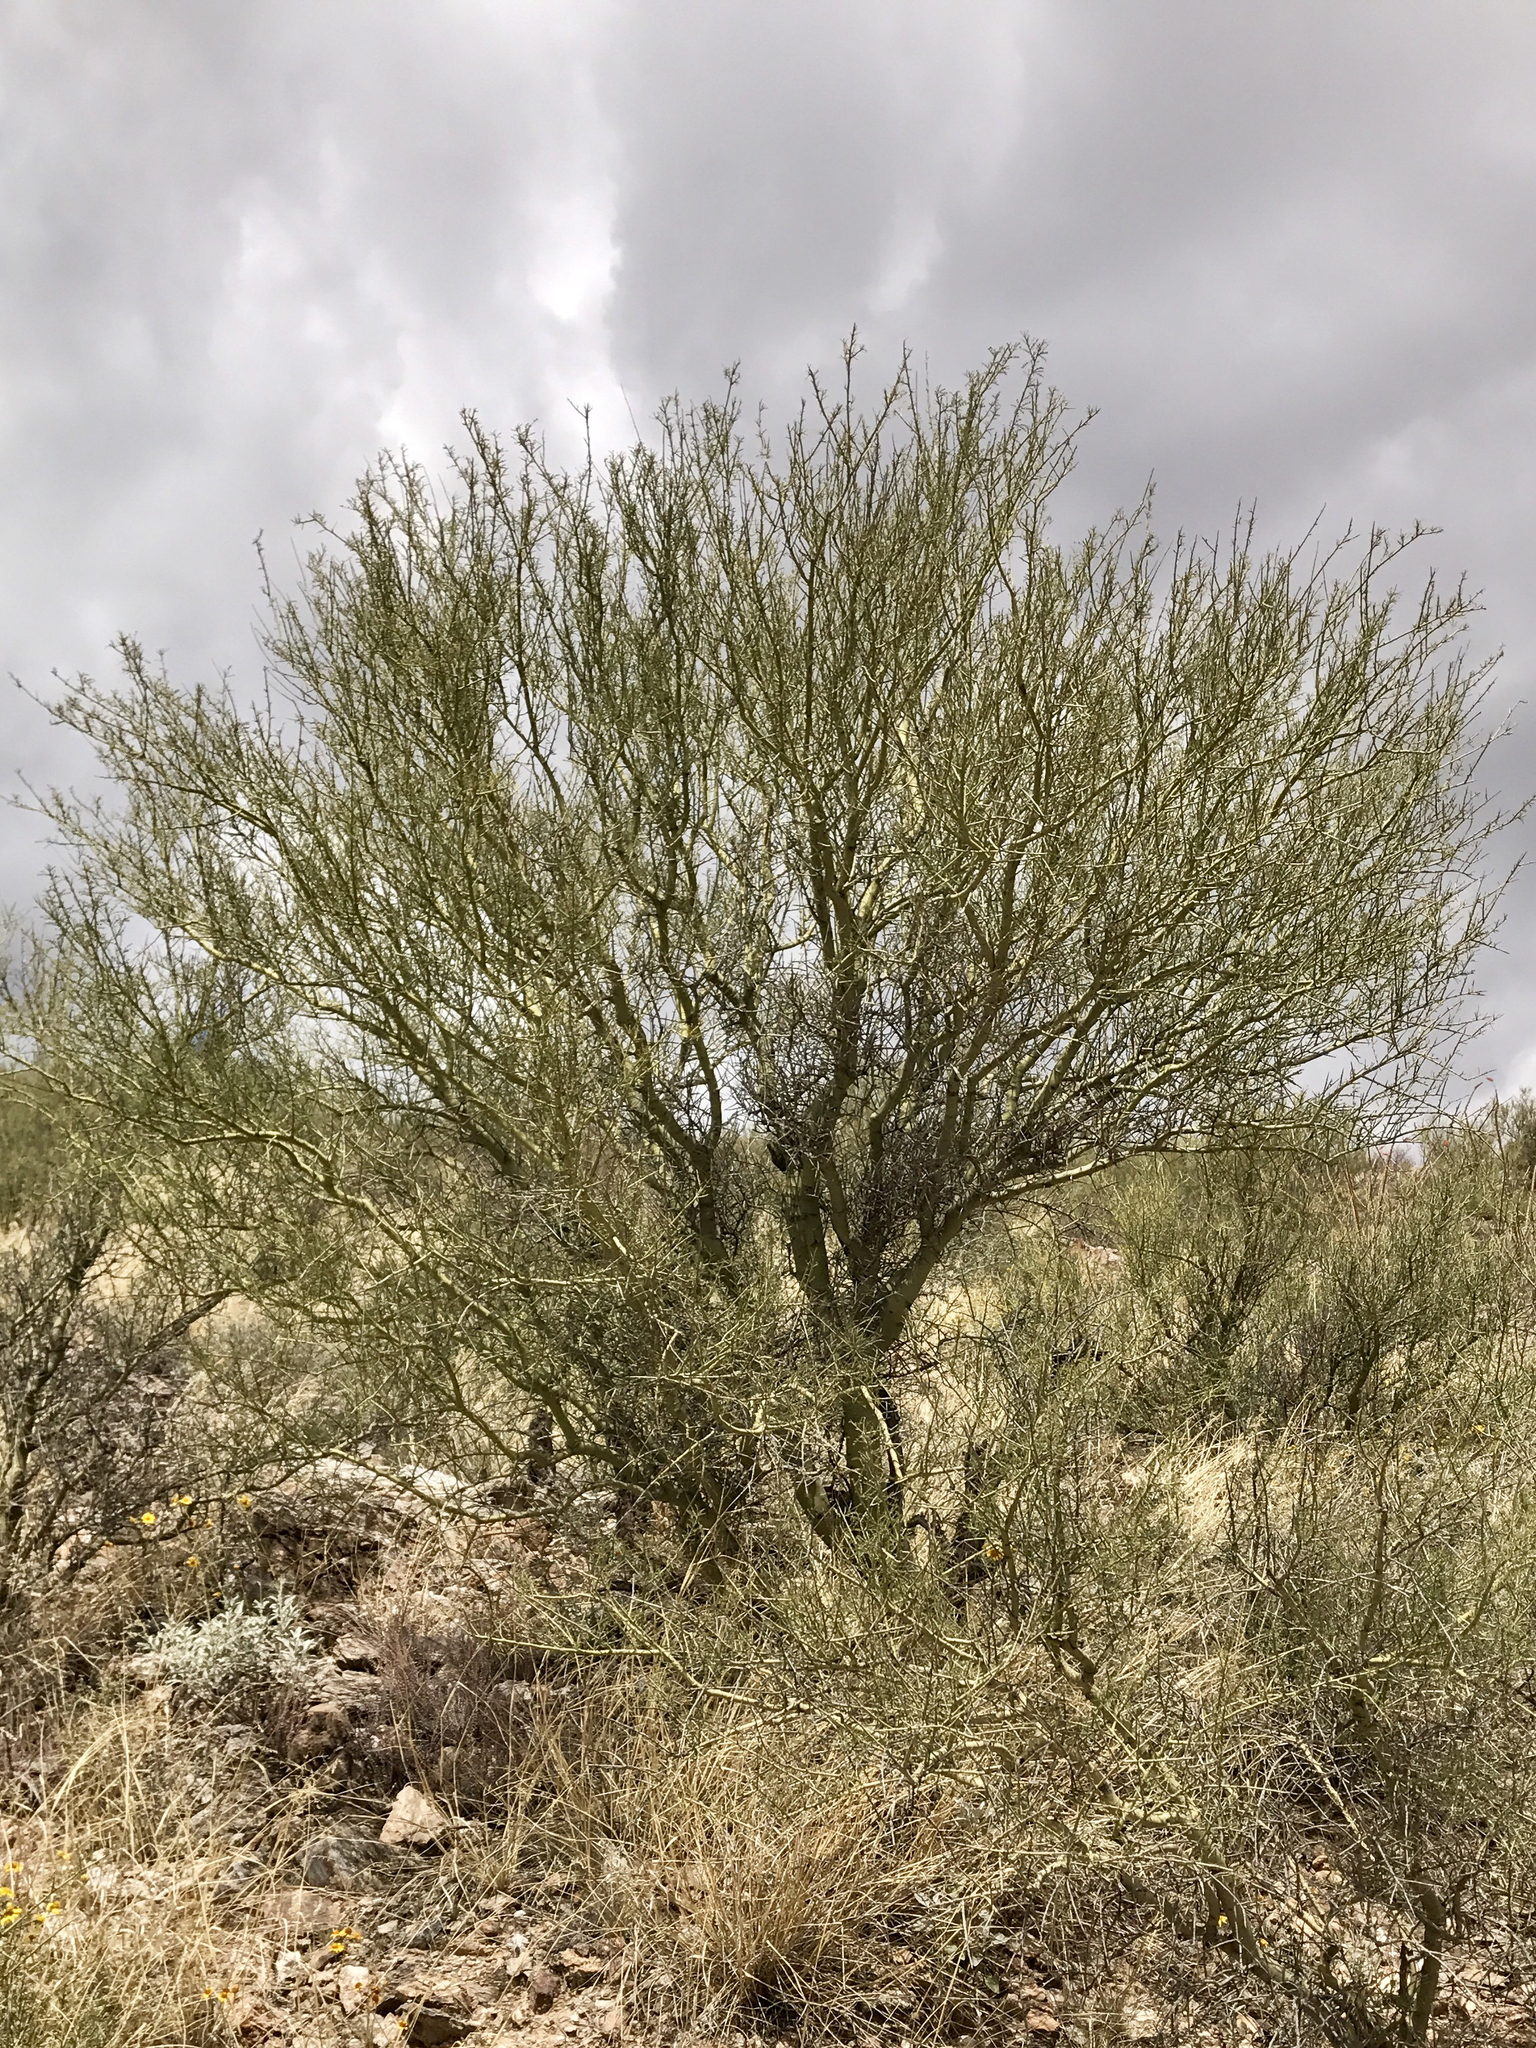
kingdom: Plantae
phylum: Tracheophyta
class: Magnoliopsida
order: Fabales
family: Fabaceae
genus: Parkinsonia
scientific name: Parkinsonia microphylla
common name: Yellow paloverde
